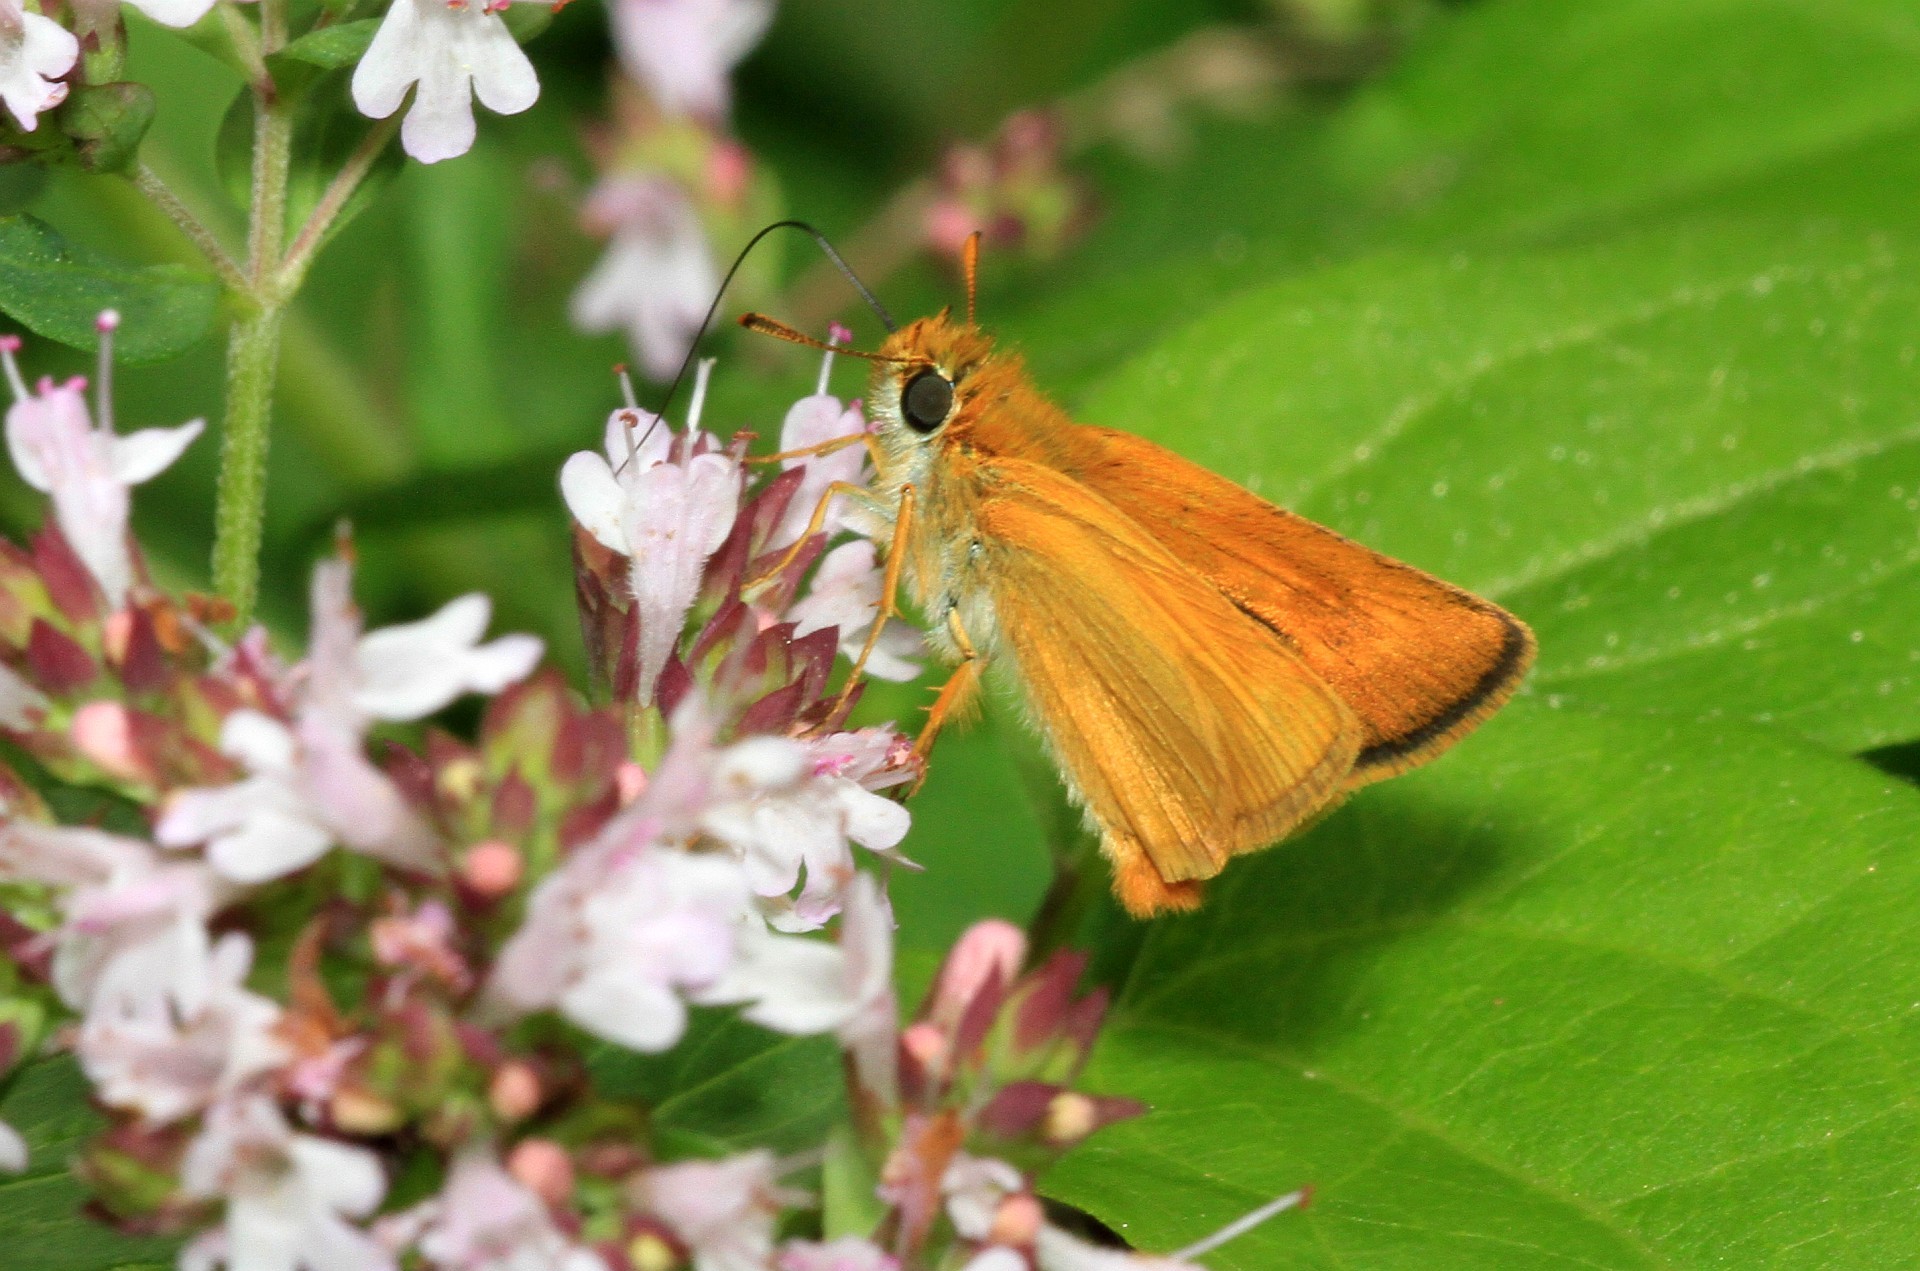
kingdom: Animalia
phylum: Arthropoda
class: Insecta
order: Lepidoptera
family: Hesperiidae
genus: Thymelicus
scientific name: Thymelicus acteon
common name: Lulworth skipper
